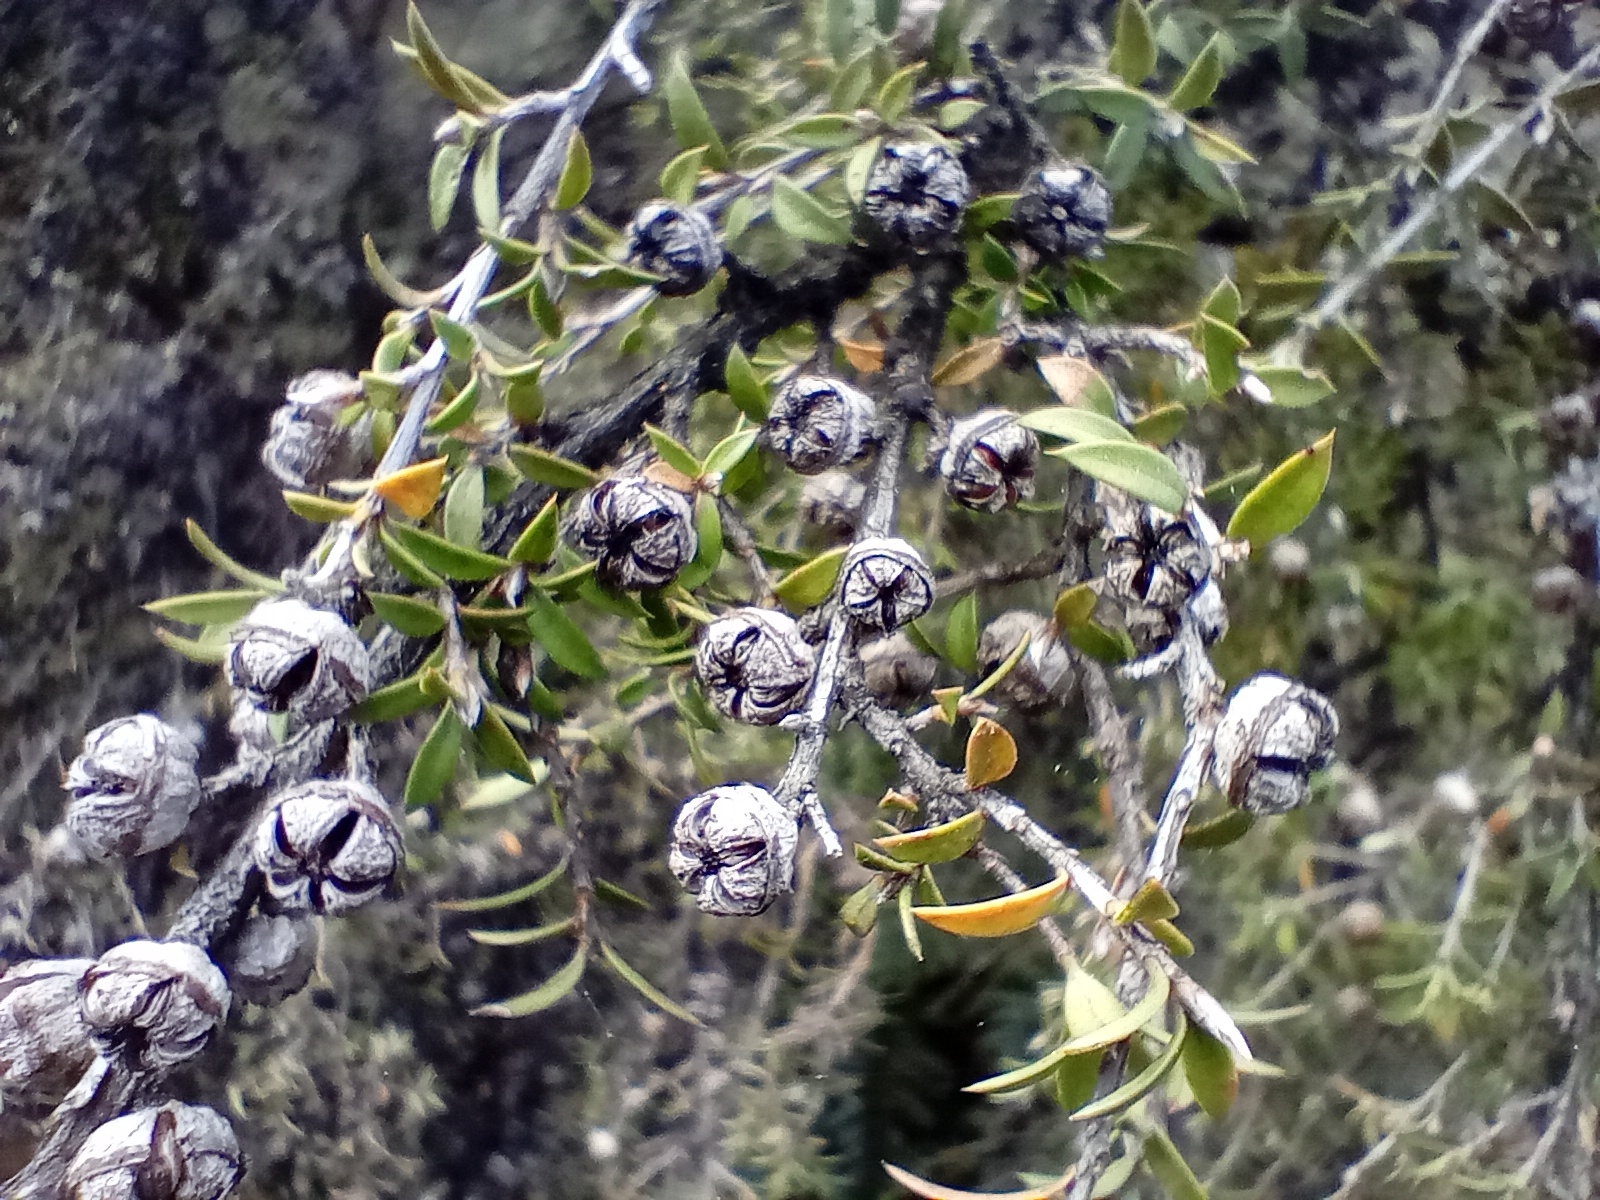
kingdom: Plantae
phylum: Tracheophyta
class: Magnoliopsida
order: Myrtales
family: Myrtaceae
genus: Leptospermum
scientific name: Leptospermum scoparium
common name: Broom tea-tree
